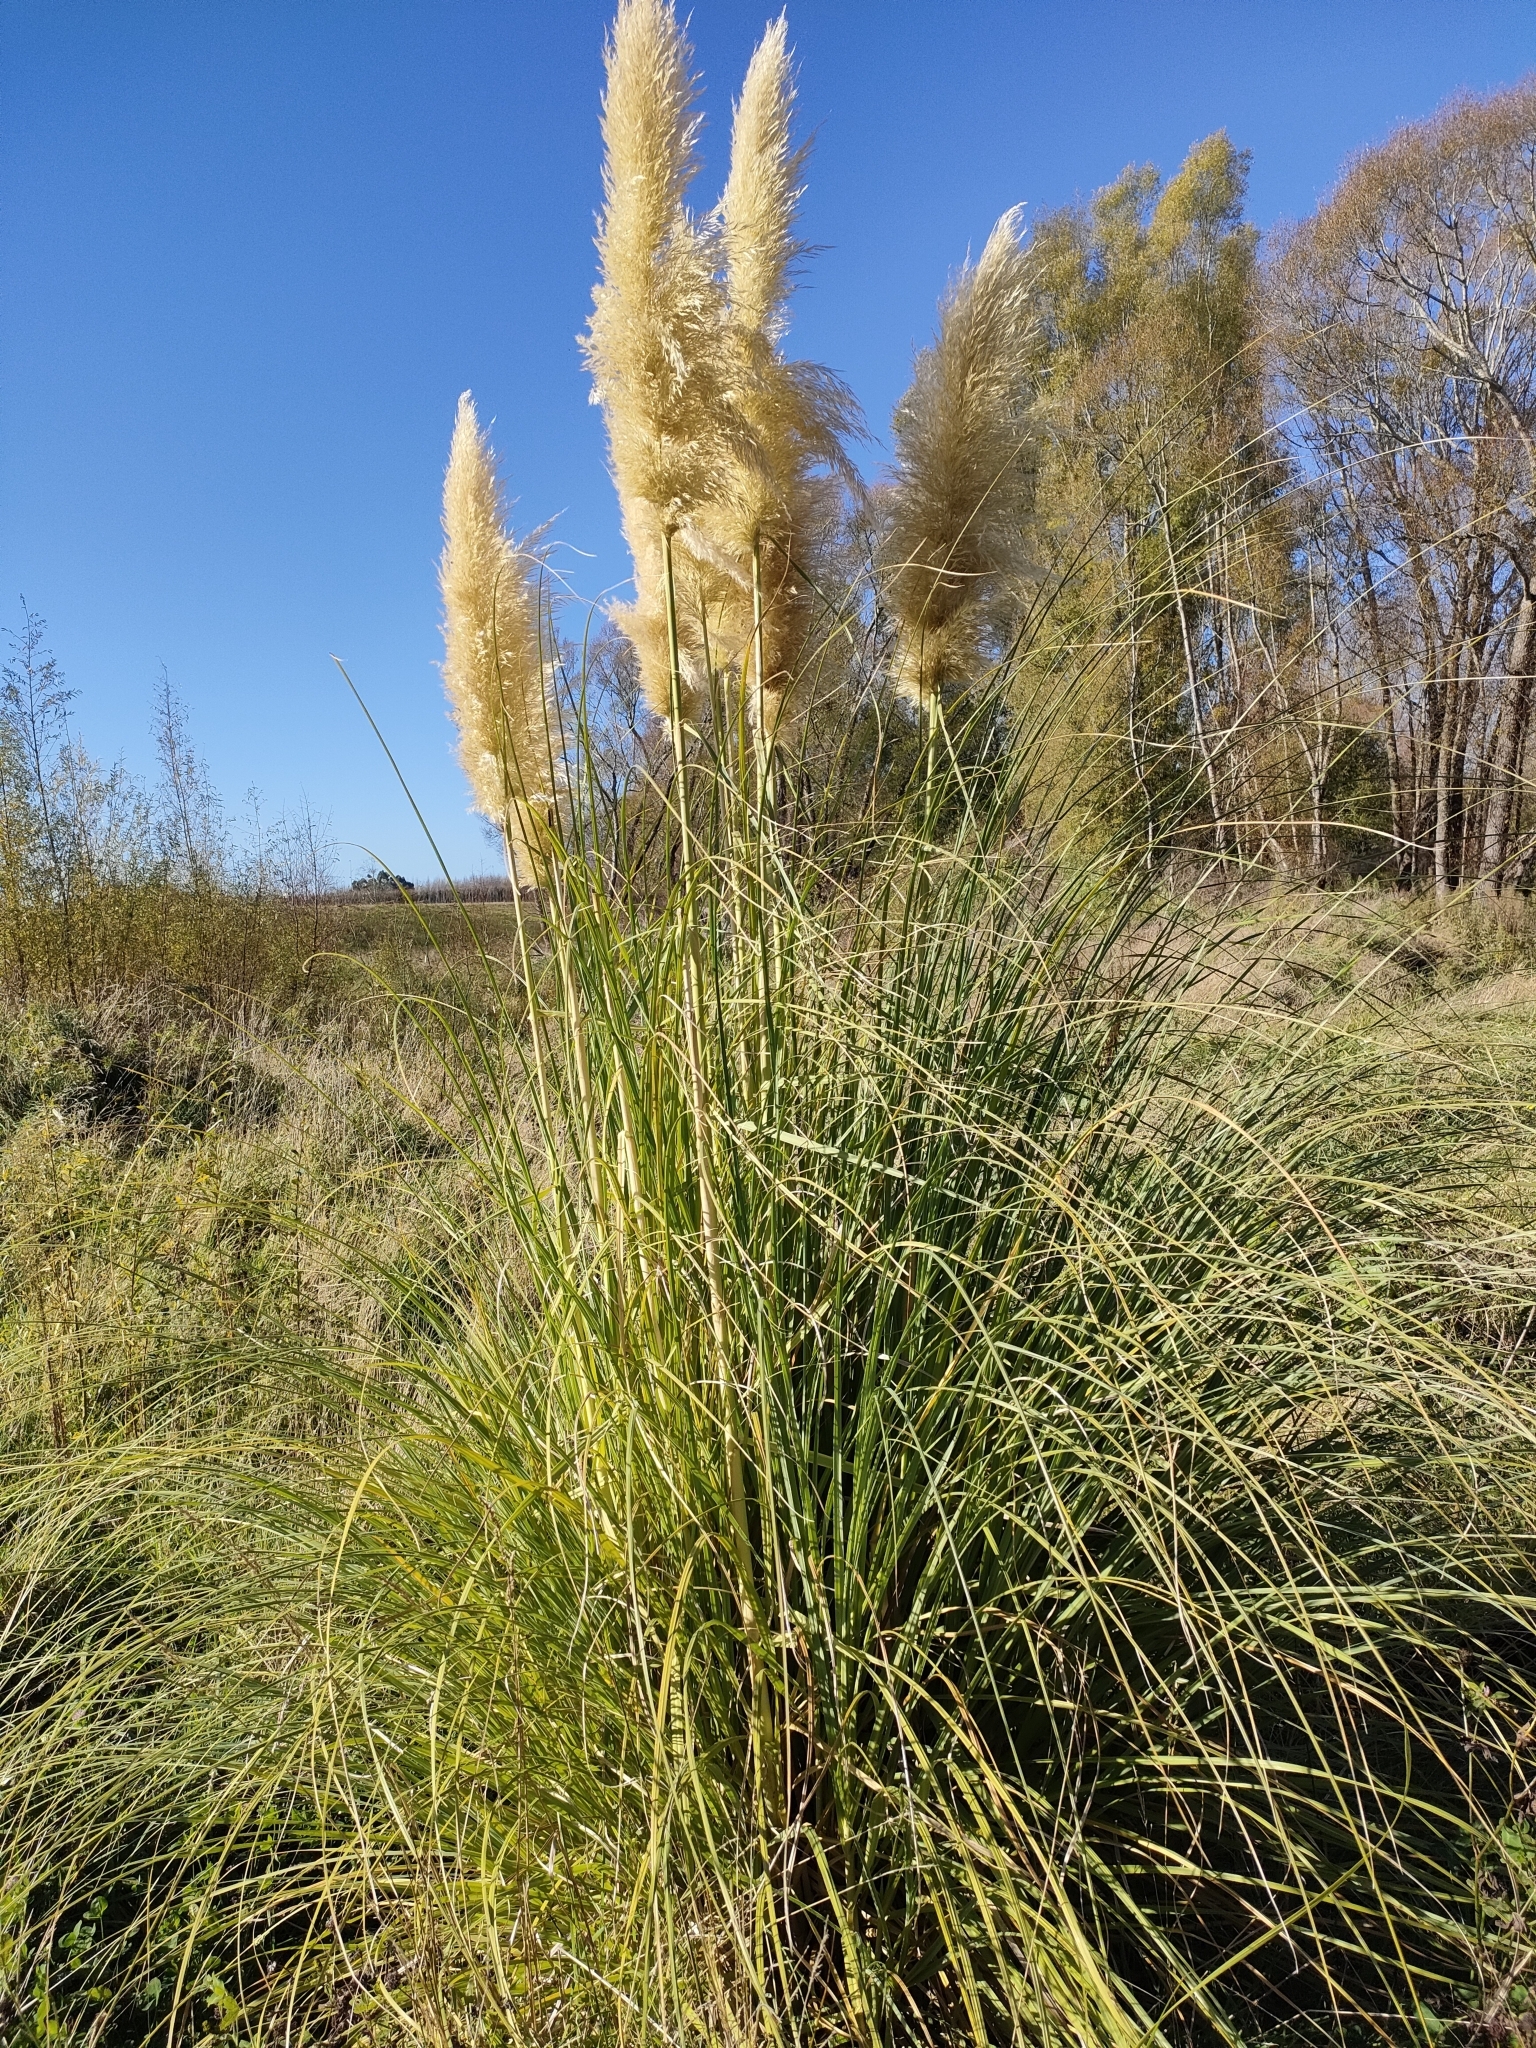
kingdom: Plantae
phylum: Tracheophyta
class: Liliopsida
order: Poales
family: Poaceae
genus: Cortaderia
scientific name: Cortaderia selloana
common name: Uruguayan pampas grass
